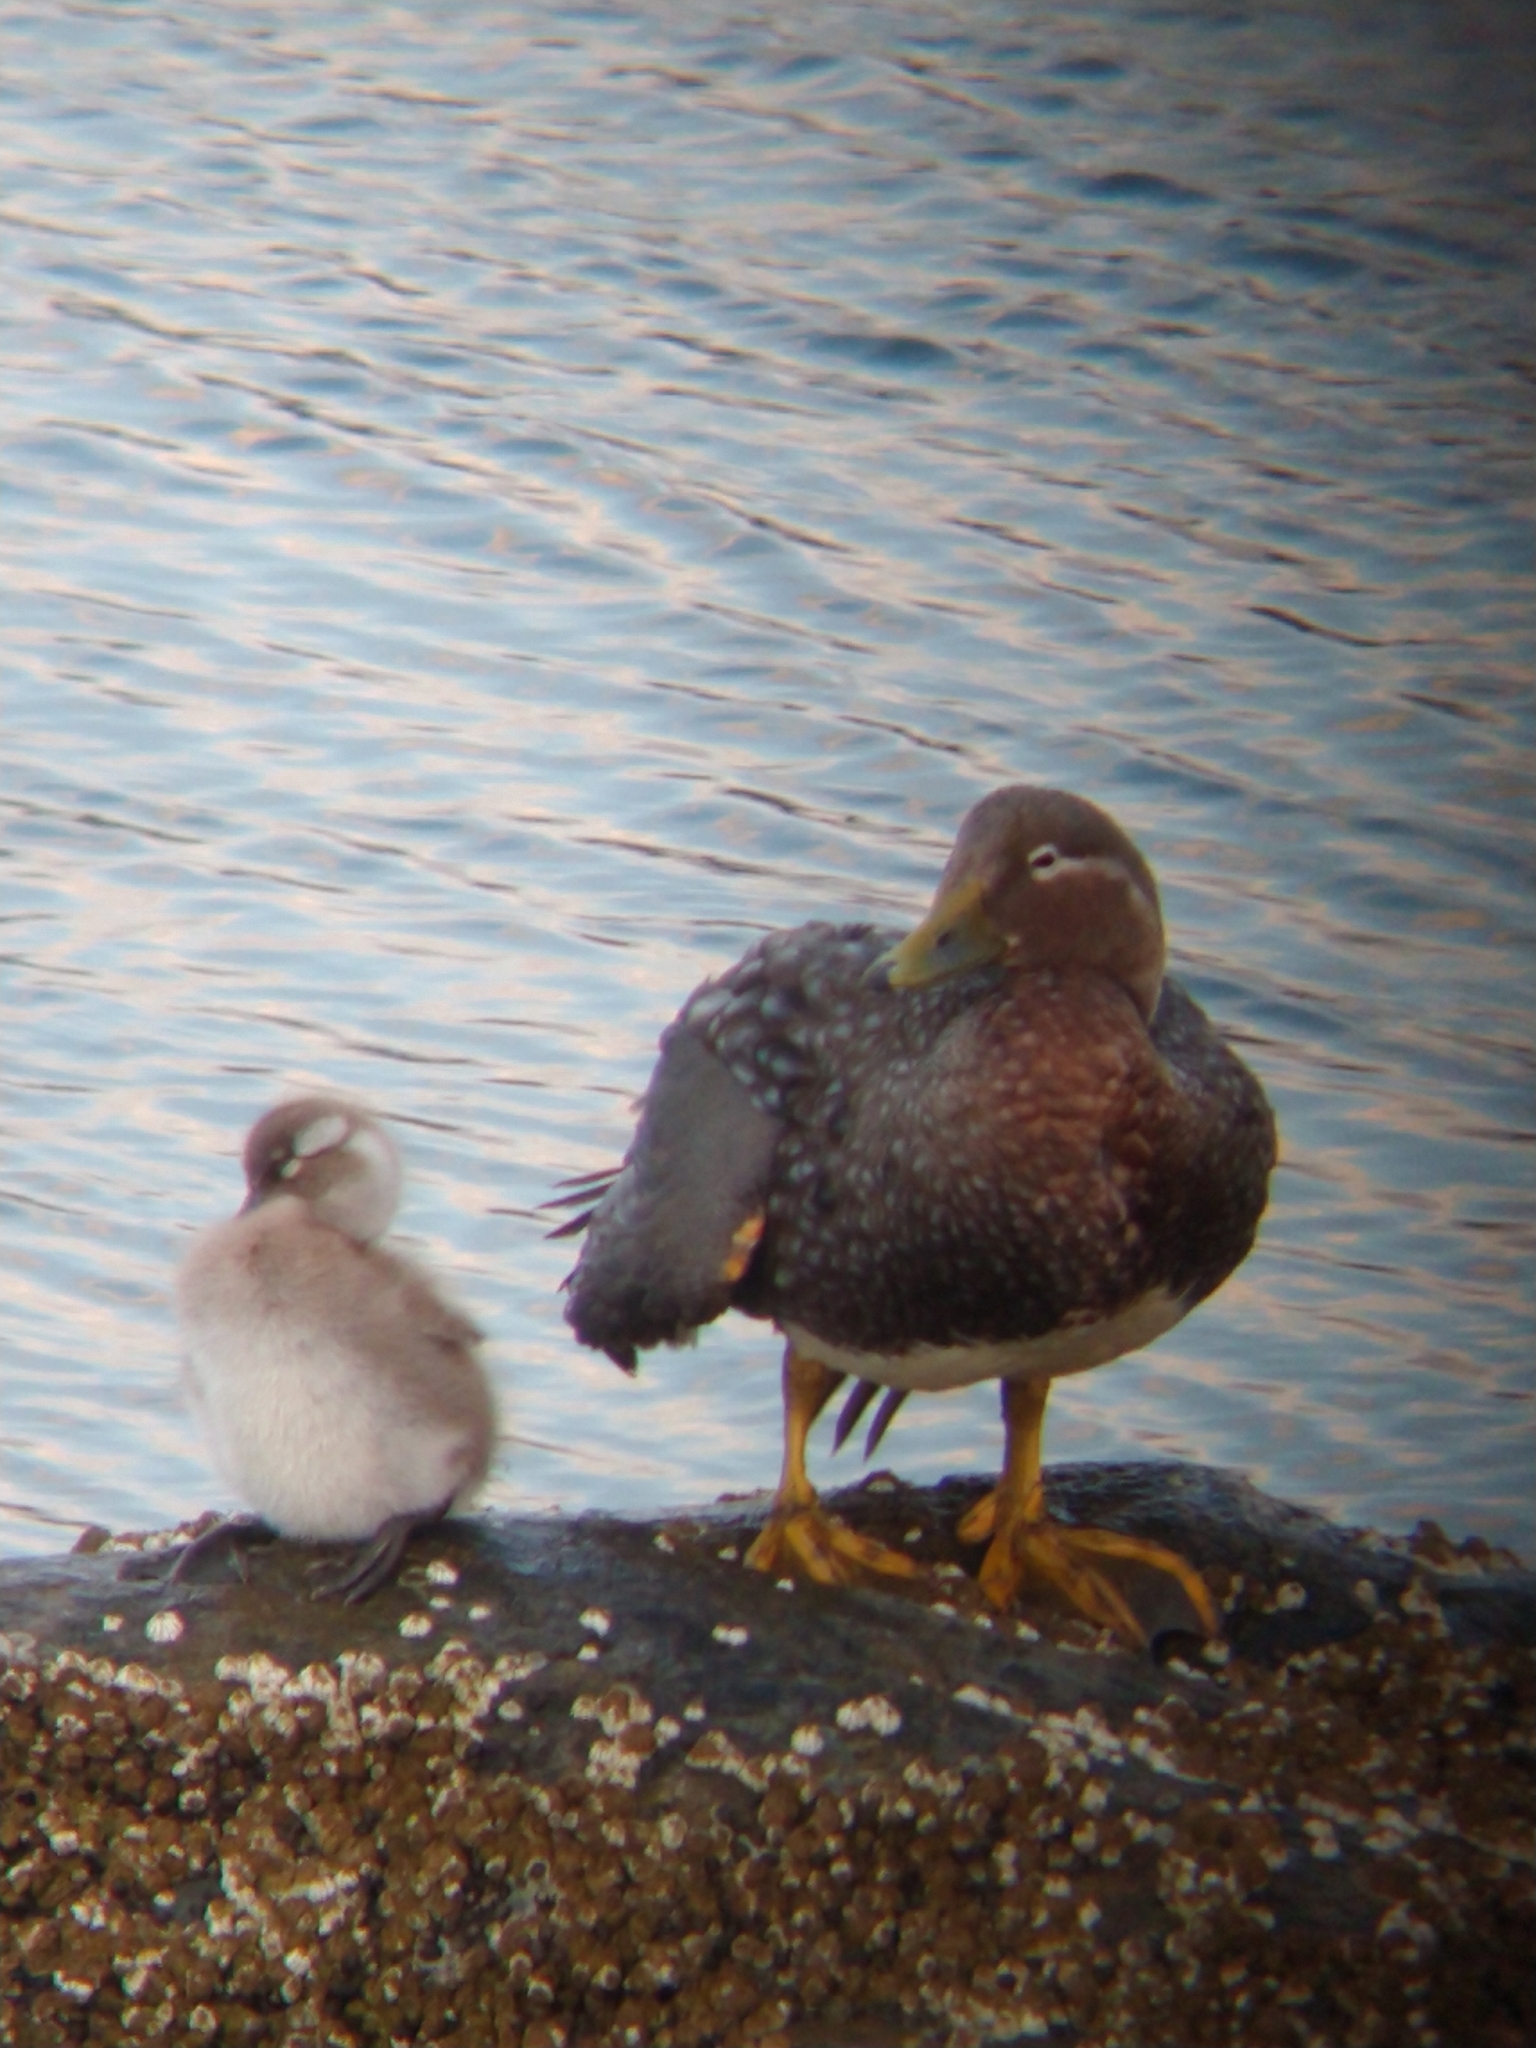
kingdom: Animalia
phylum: Chordata
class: Aves
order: Anseriformes
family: Anatidae
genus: Tachyeres
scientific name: Tachyeres patachonicus
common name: Flying steamer duck
